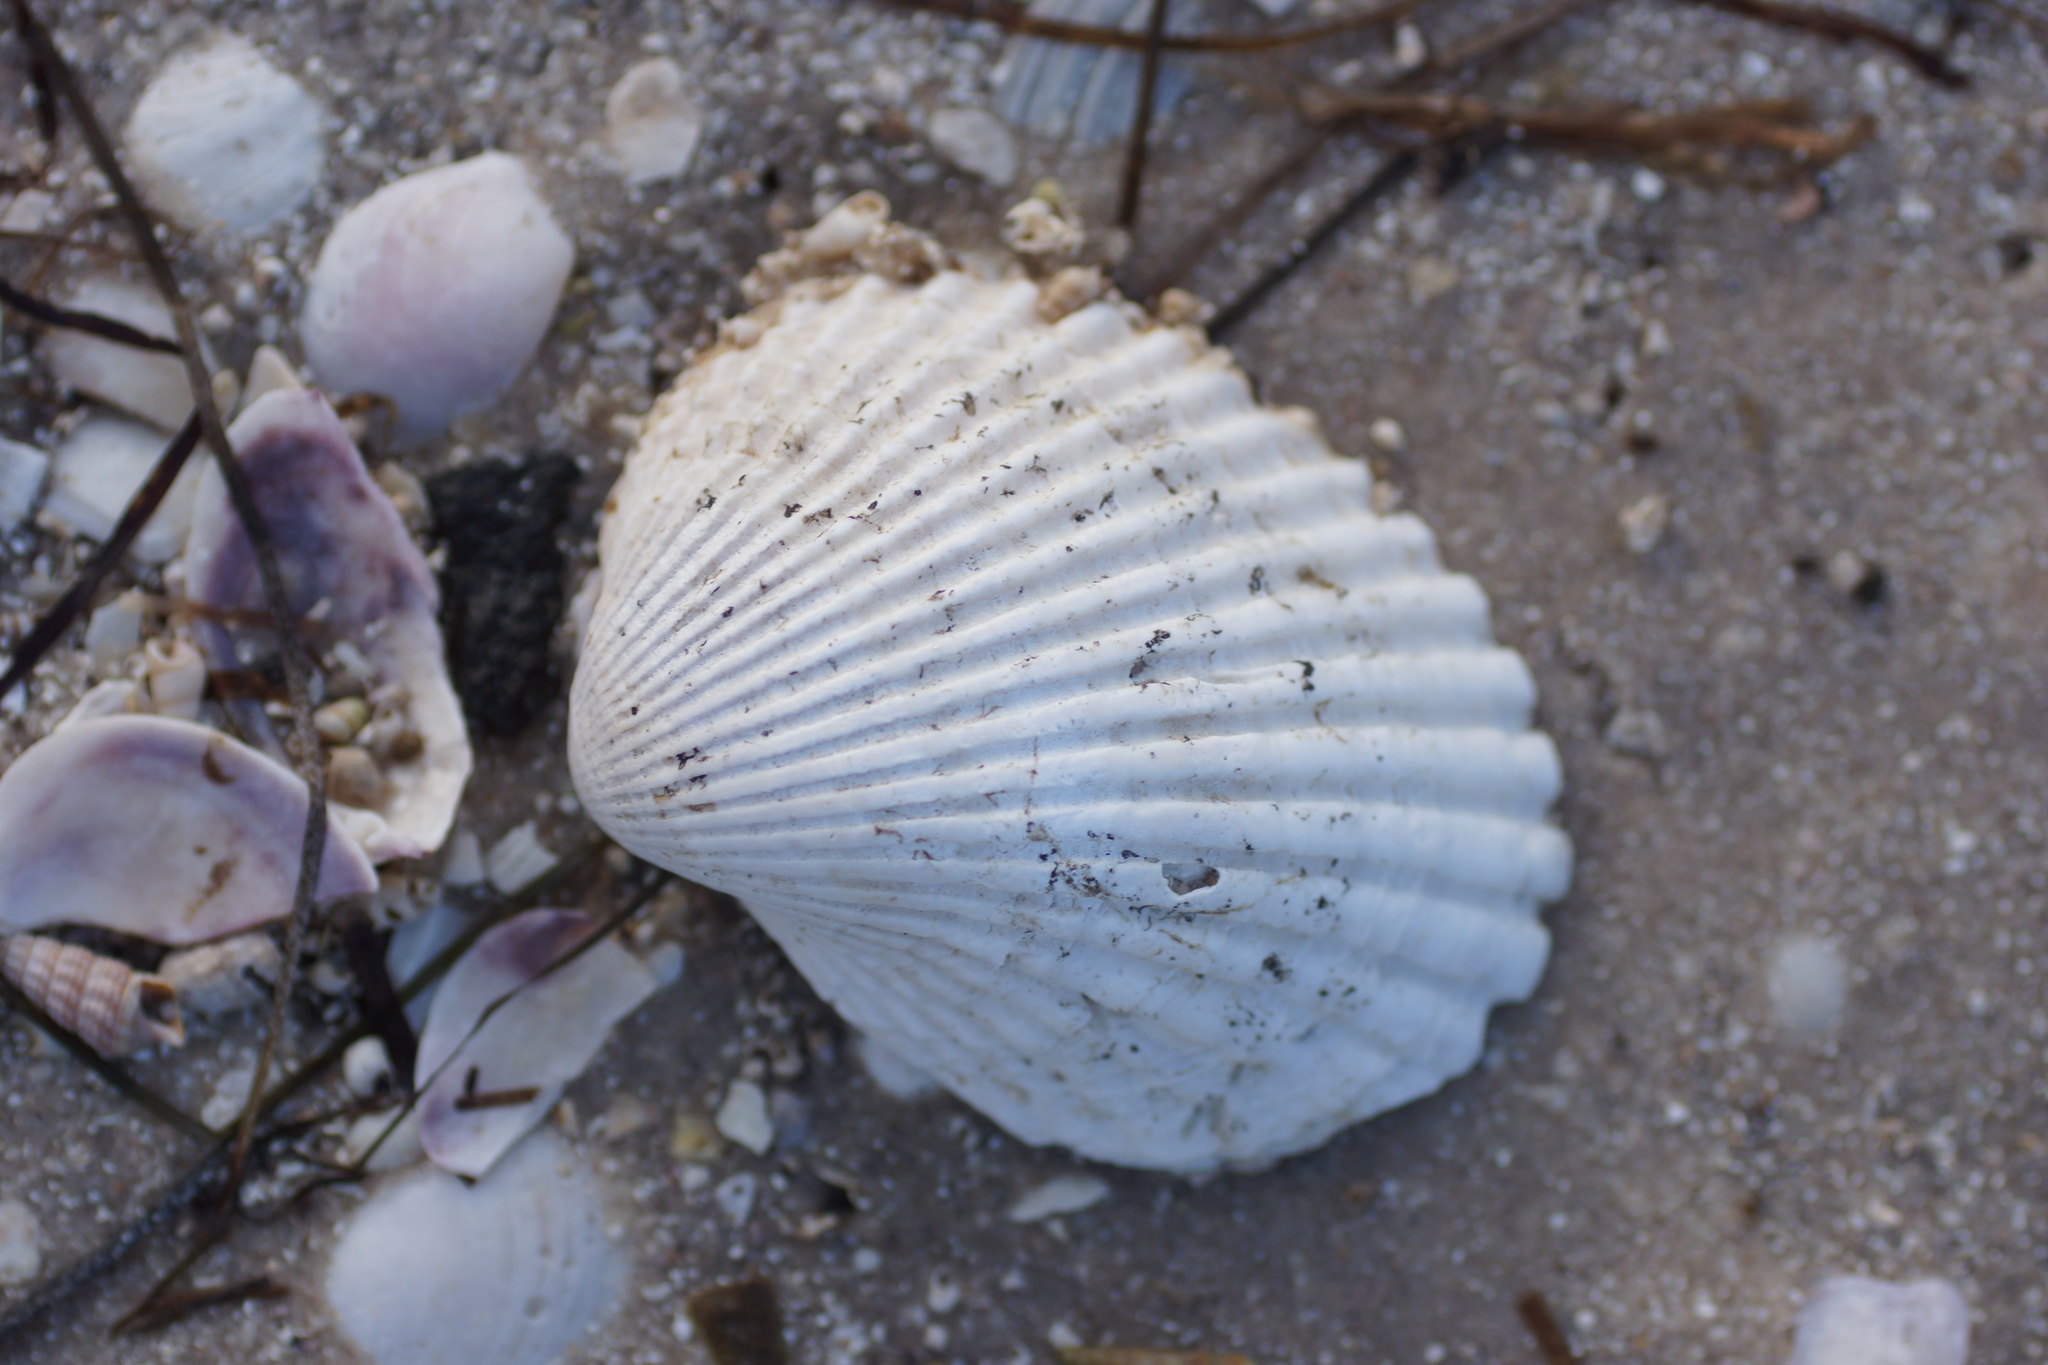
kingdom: Animalia
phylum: Mollusca
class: Bivalvia
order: Arcida
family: Arcidae
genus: Anadara
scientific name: Anadara trapezia
